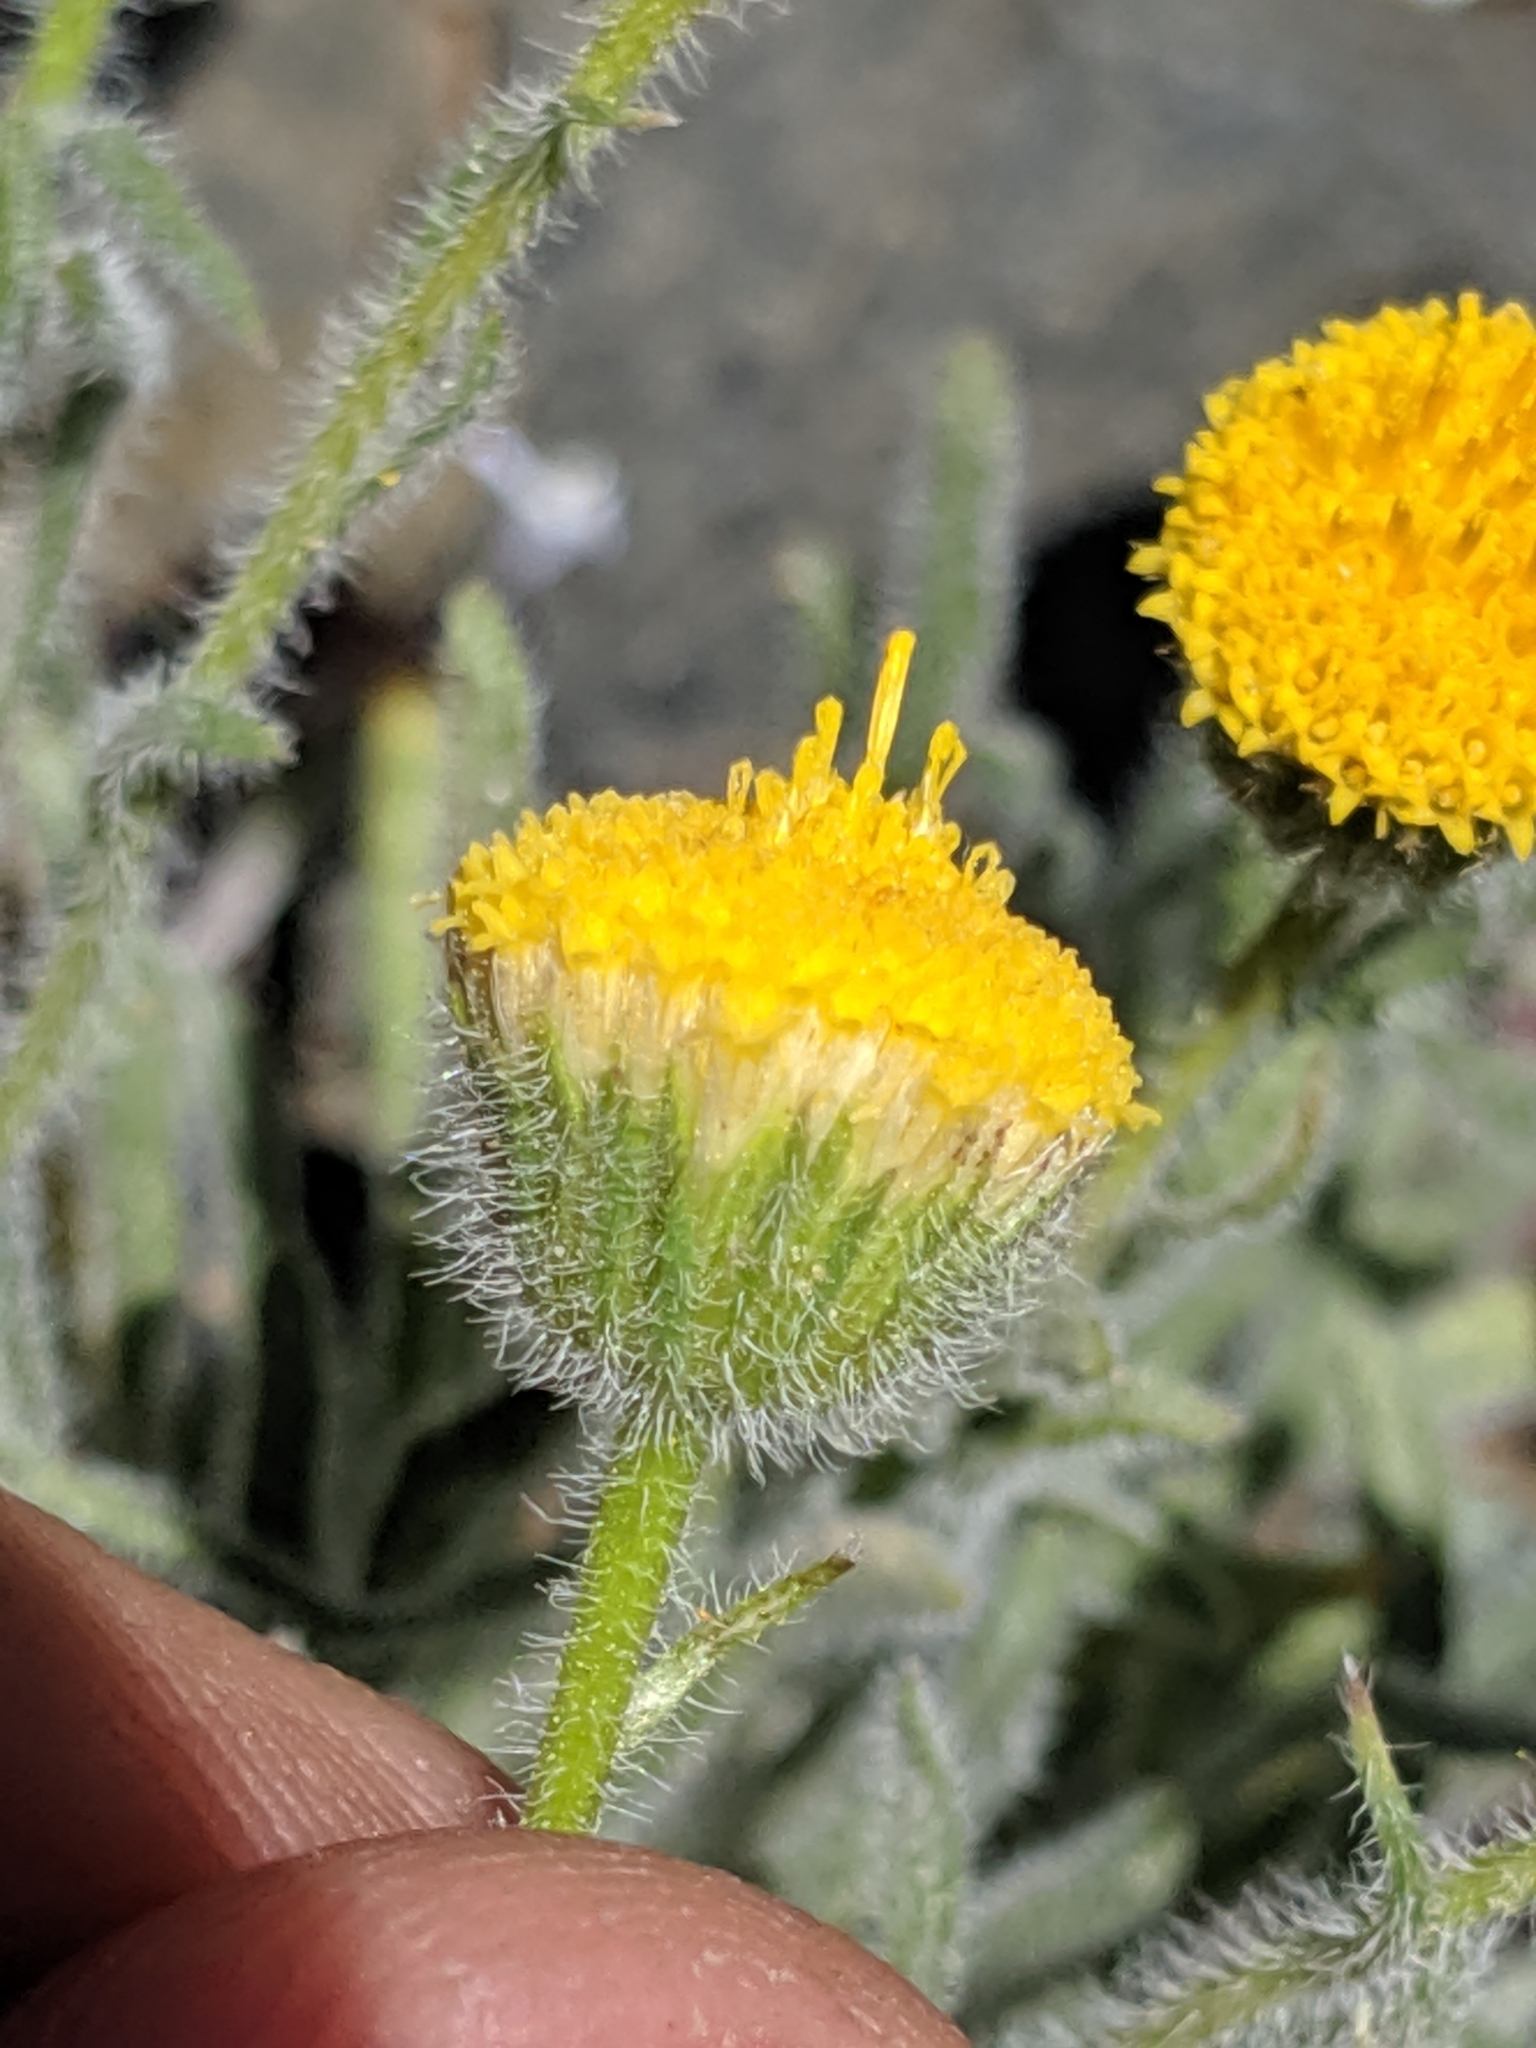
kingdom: Plantae
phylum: Tracheophyta
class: Magnoliopsida
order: Asterales
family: Asteraceae
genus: Erigeron
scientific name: Erigeron aphanactis
